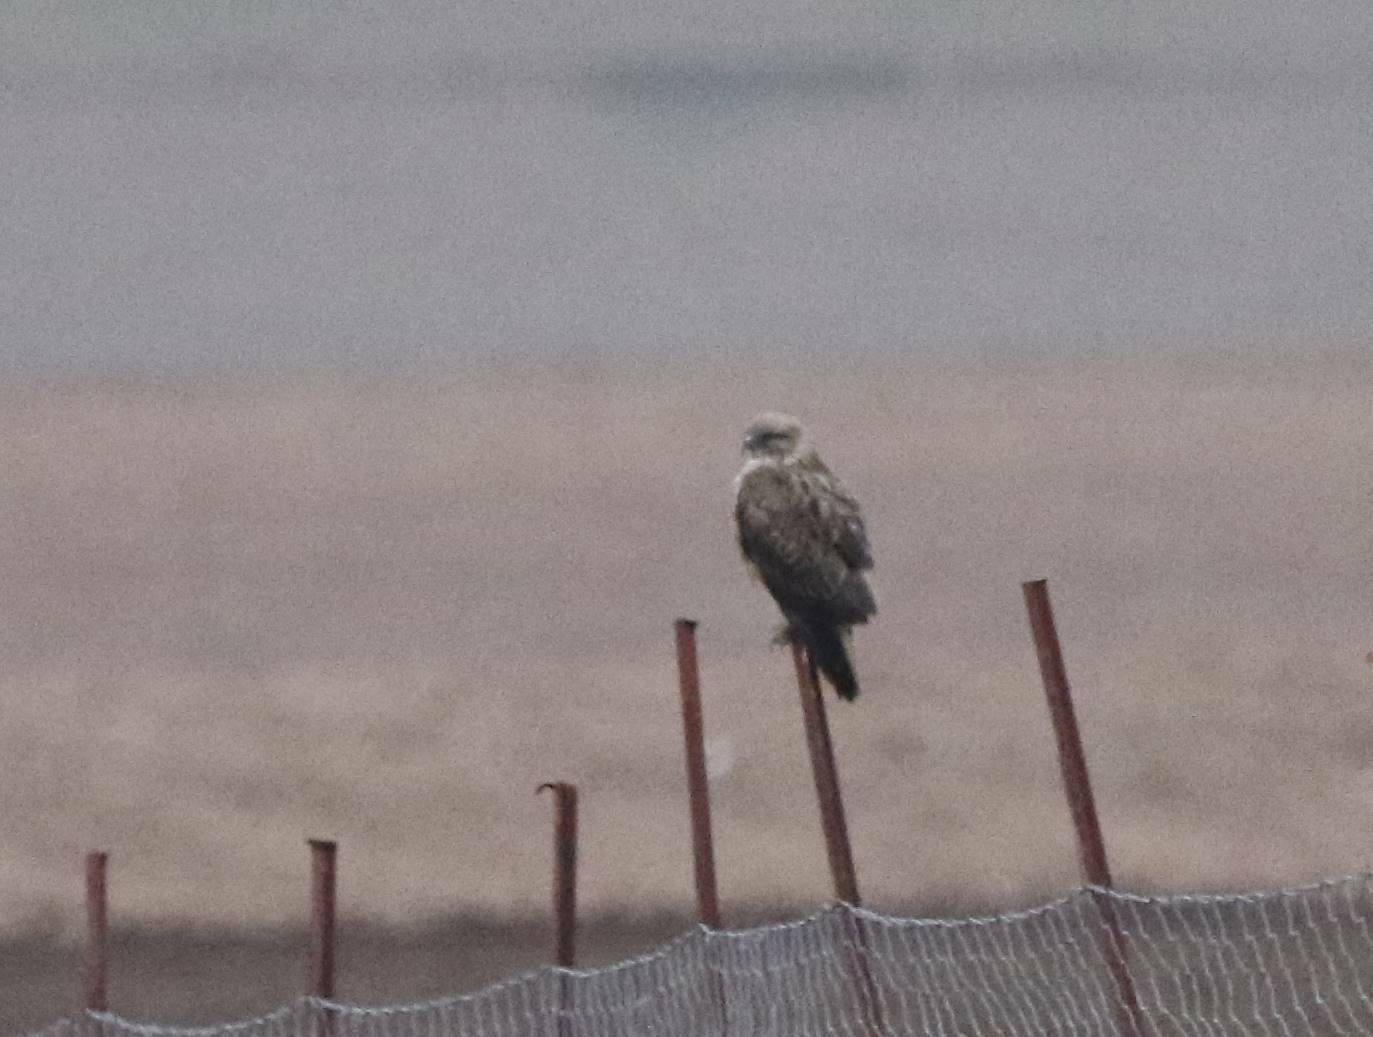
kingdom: Animalia
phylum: Chordata
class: Aves
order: Accipitriformes
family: Accipitridae
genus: Buteo
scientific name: Buteo rufinus
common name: Long-legged buzzard
